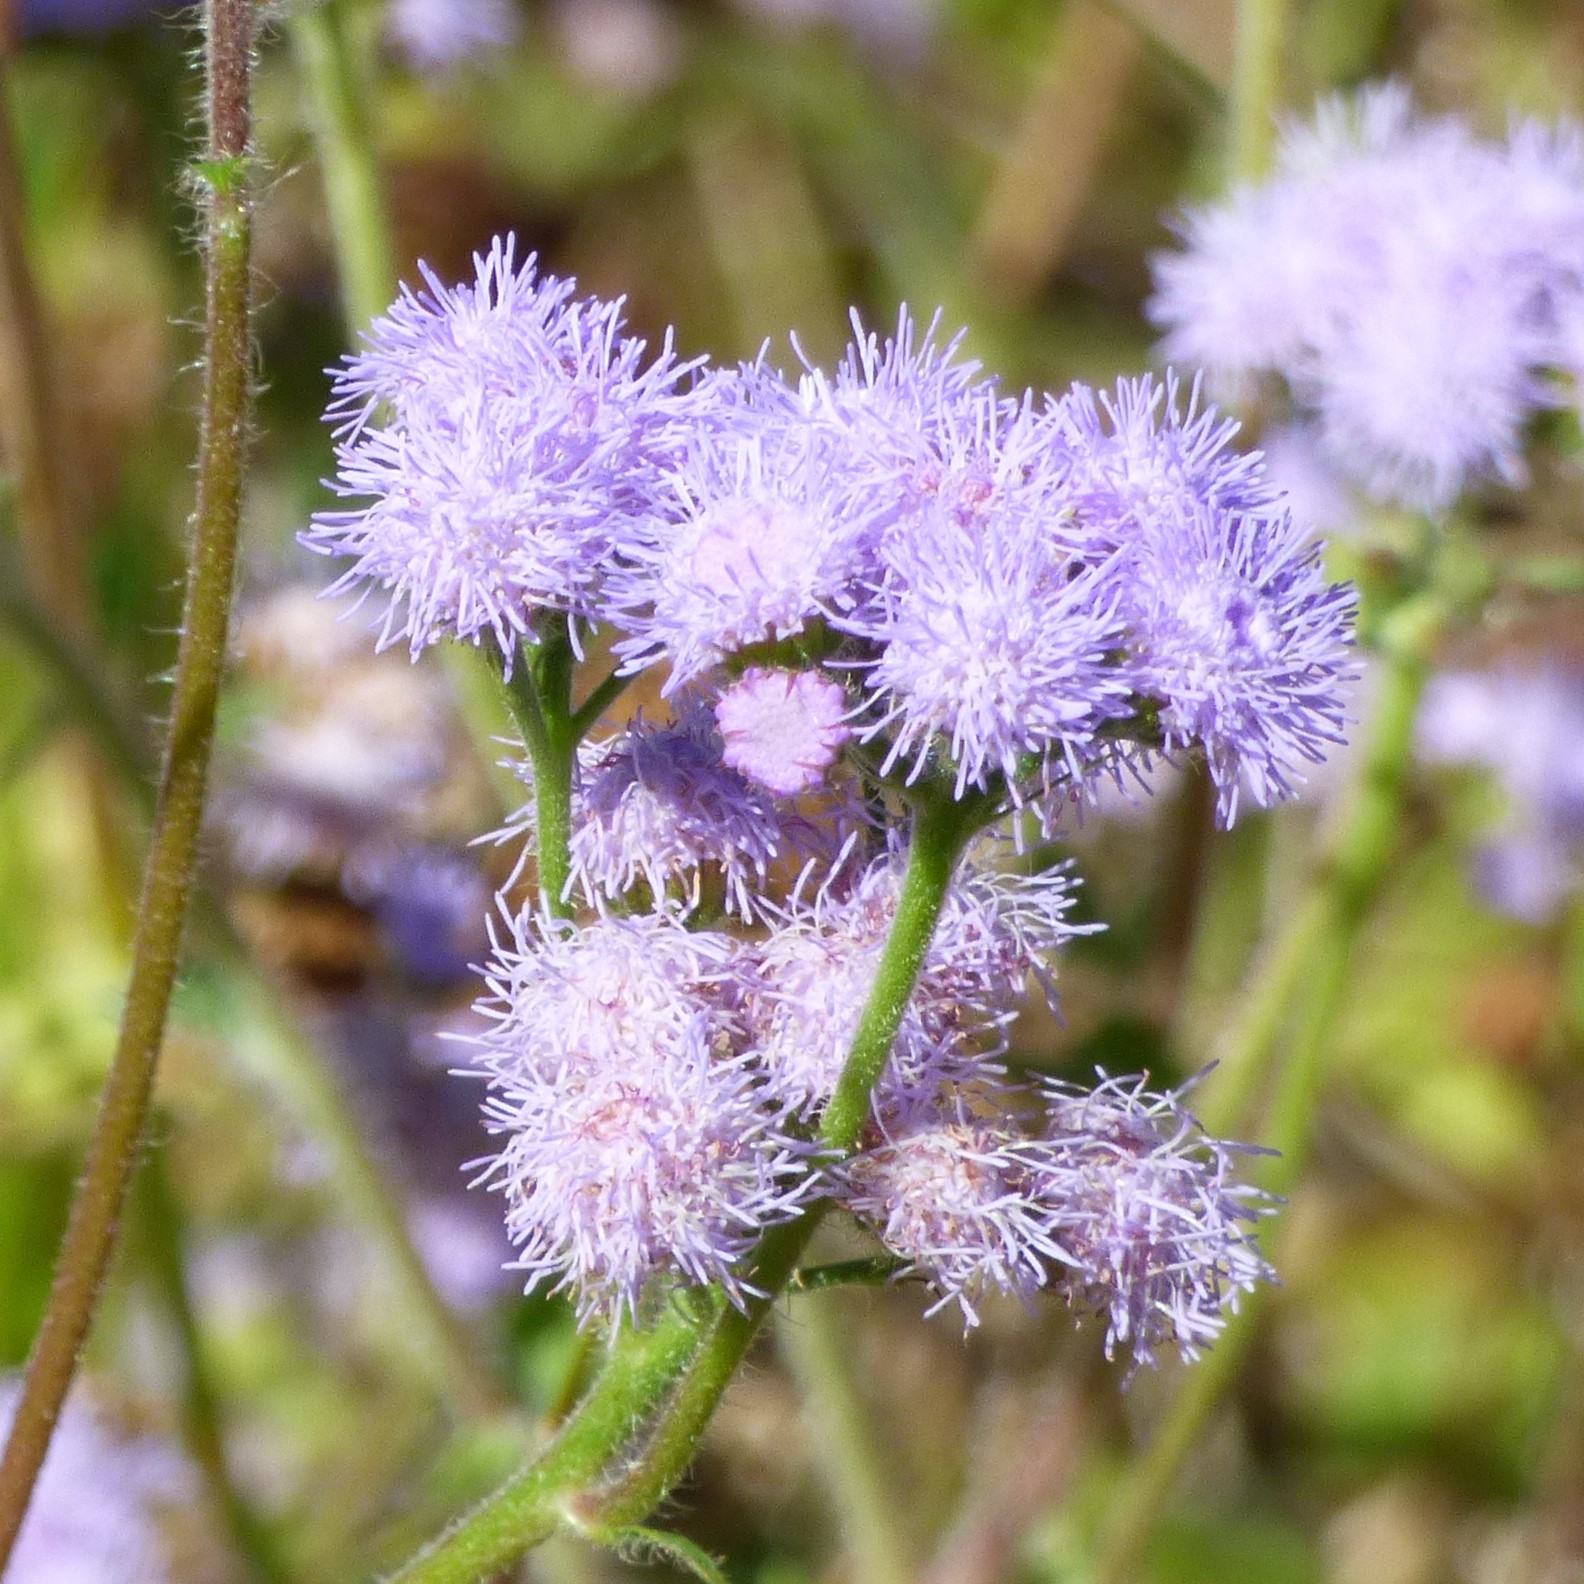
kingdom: Plantae
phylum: Tracheophyta
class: Magnoliopsida
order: Asterales
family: Asteraceae
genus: Ageratum
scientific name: Ageratum houstonianum
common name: Bluemink
